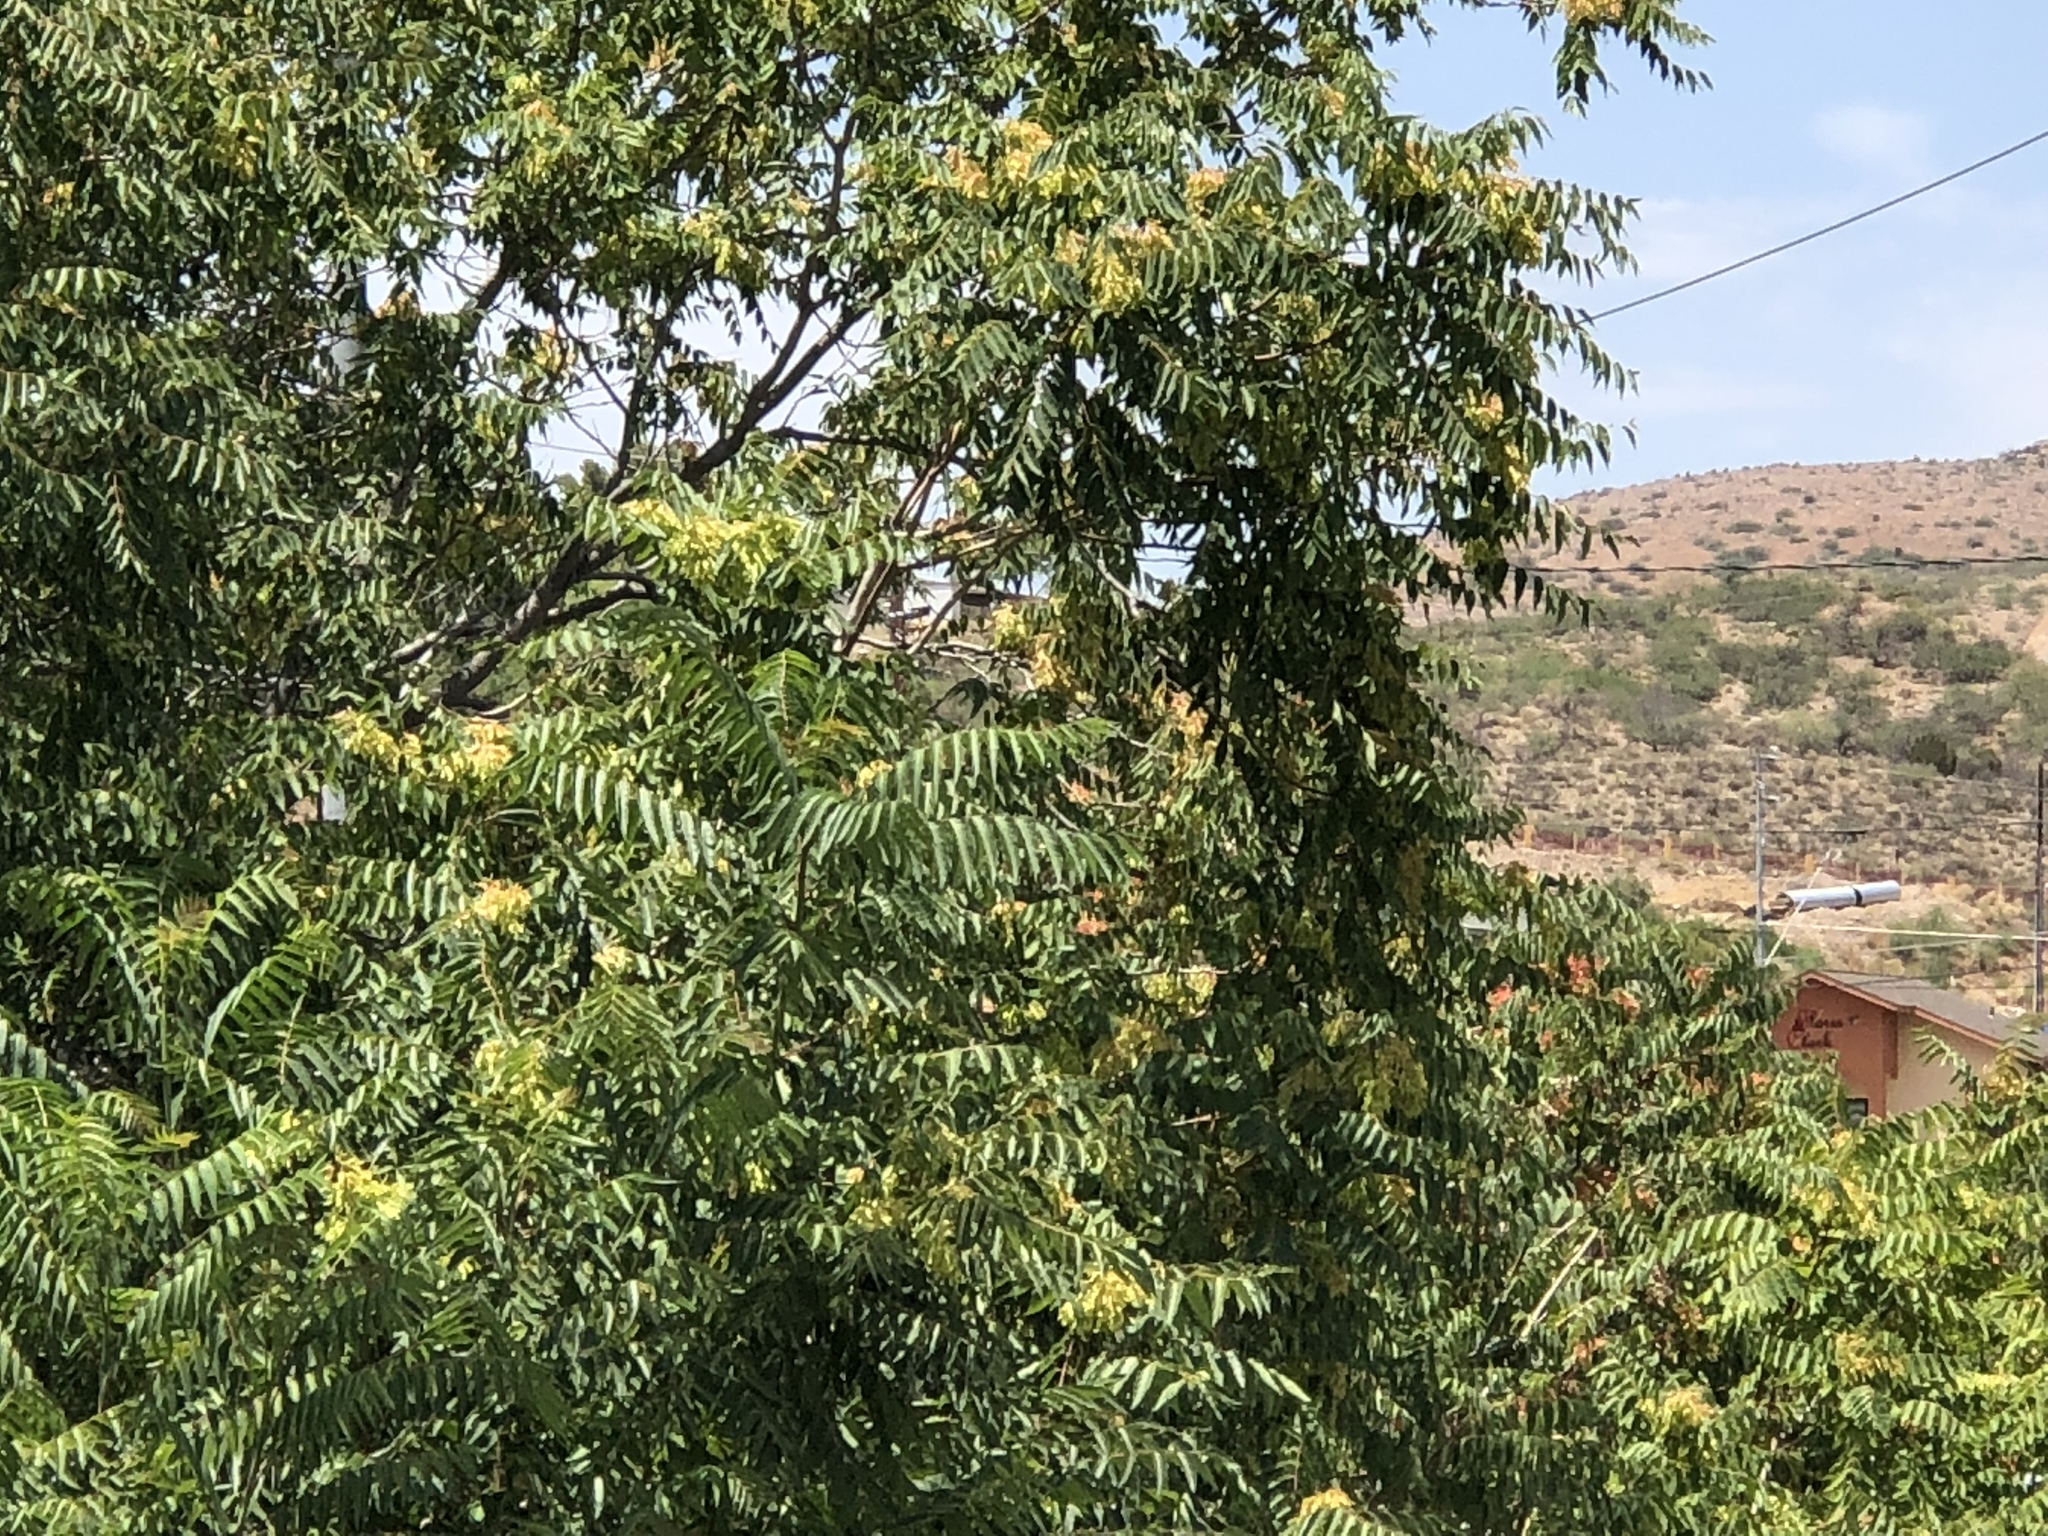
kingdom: Plantae
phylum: Tracheophyta
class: Magnoliopsida
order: Sapindales
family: Simaroubaceae
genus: Ailanthus
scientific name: Ailanthus altissima
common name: Tree-of-heaven
